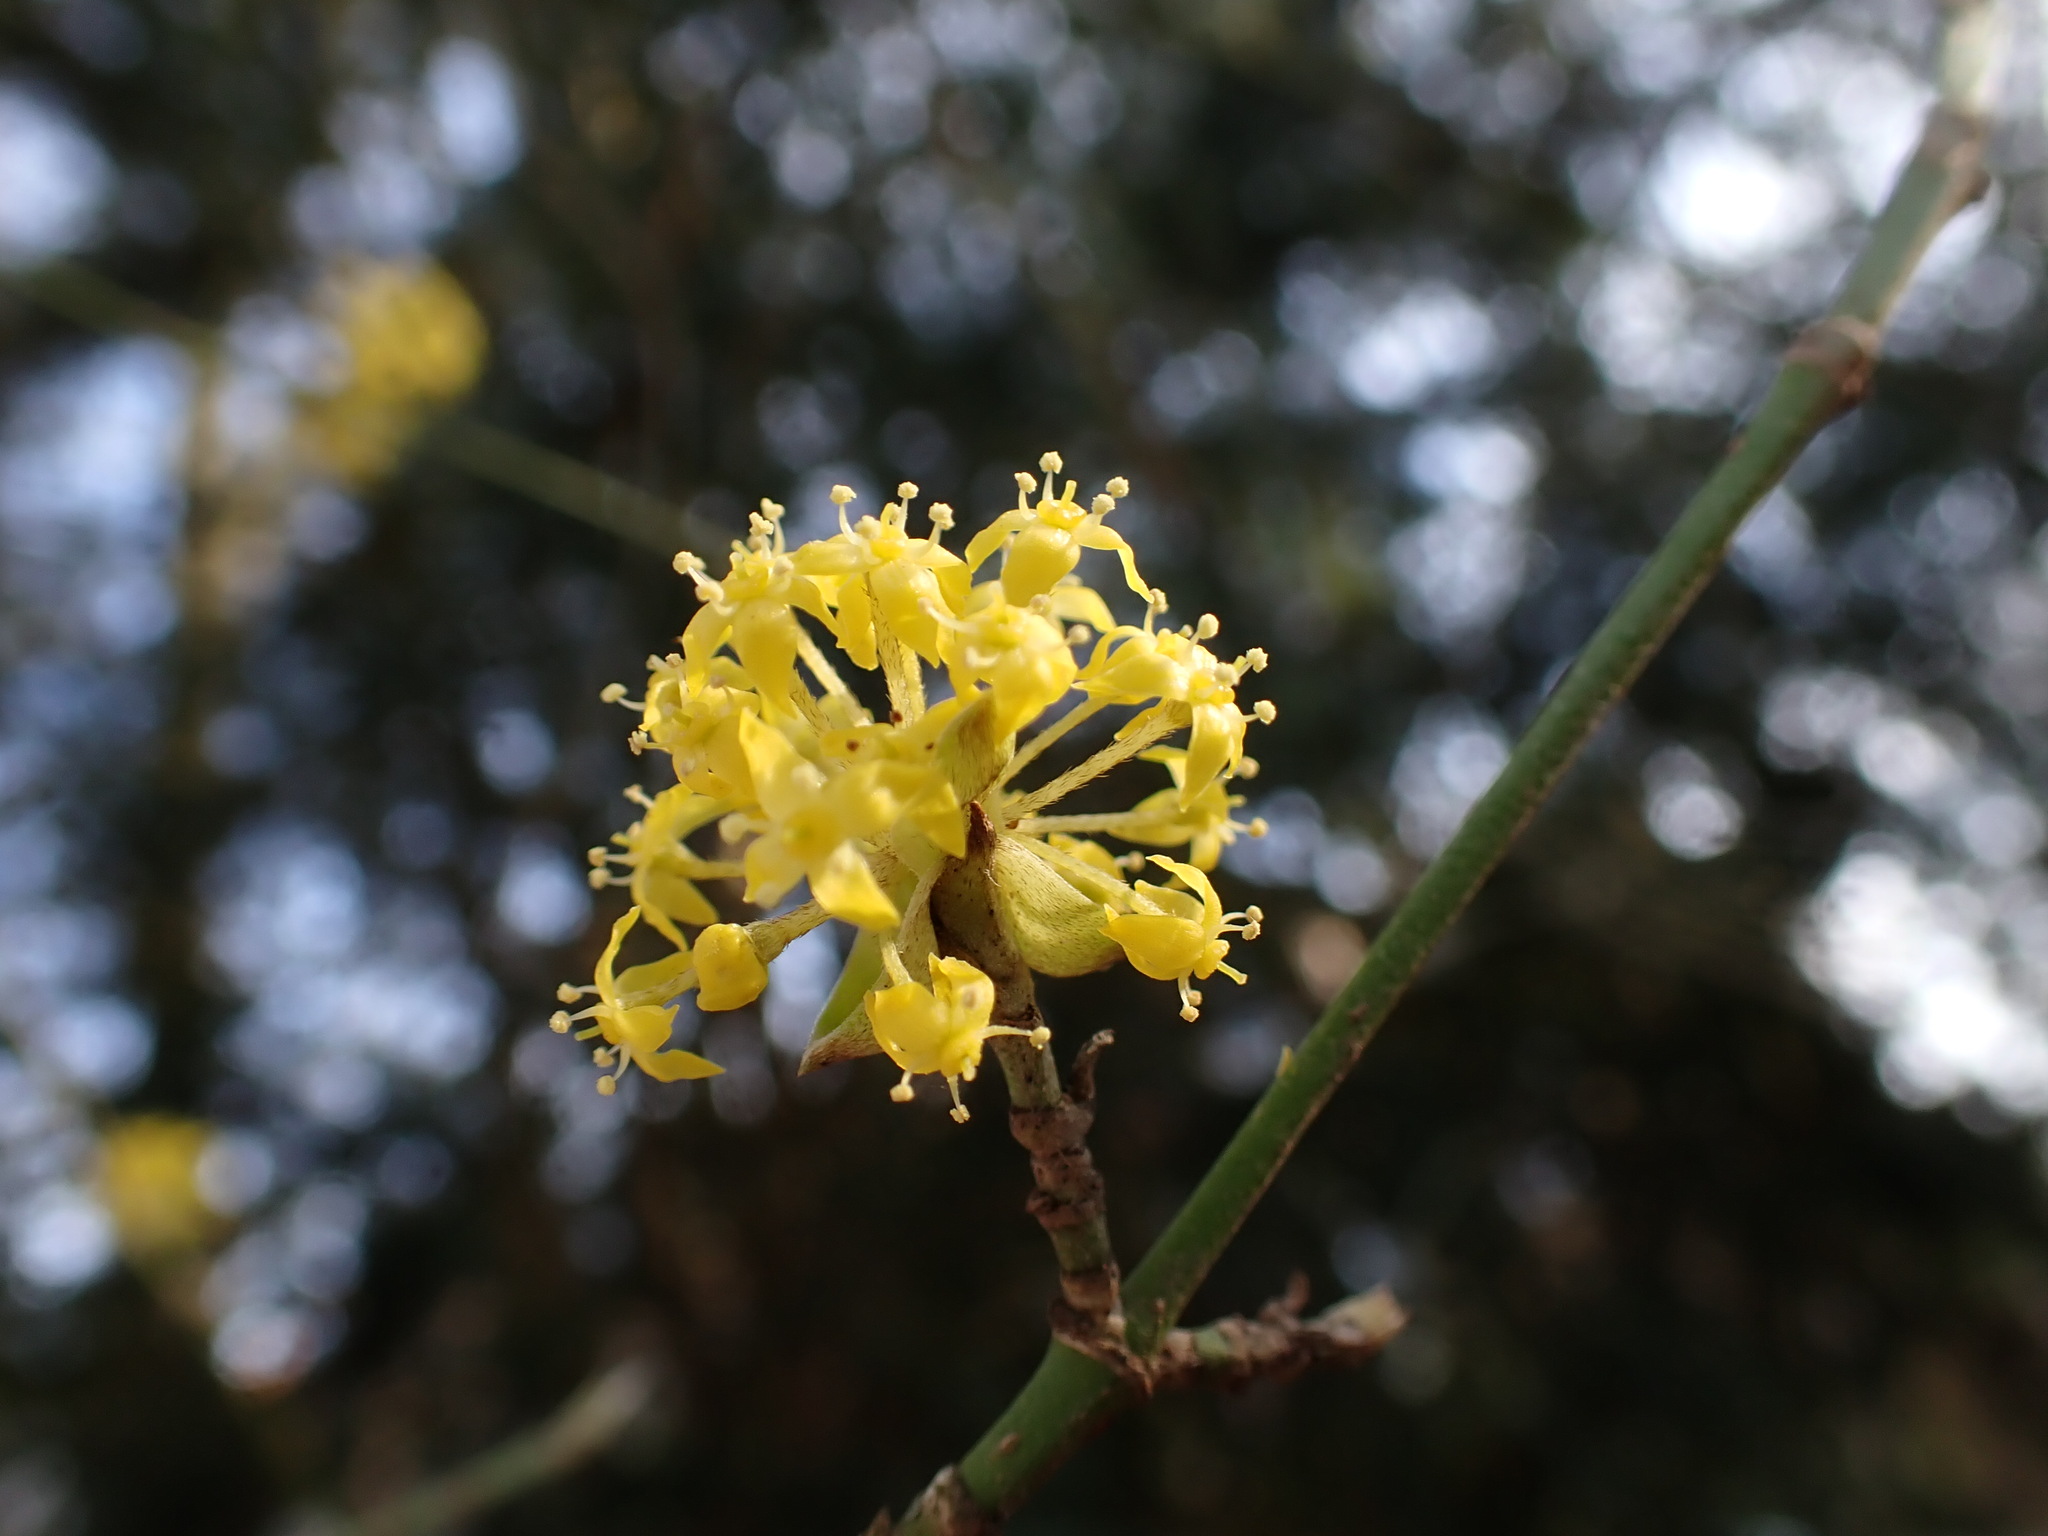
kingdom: Plantae
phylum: Tracheophyta
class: Magnoliopsida
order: Cornales
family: Cornaceae
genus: Cornus
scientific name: Cornus mas
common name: Cornelian-cherry
